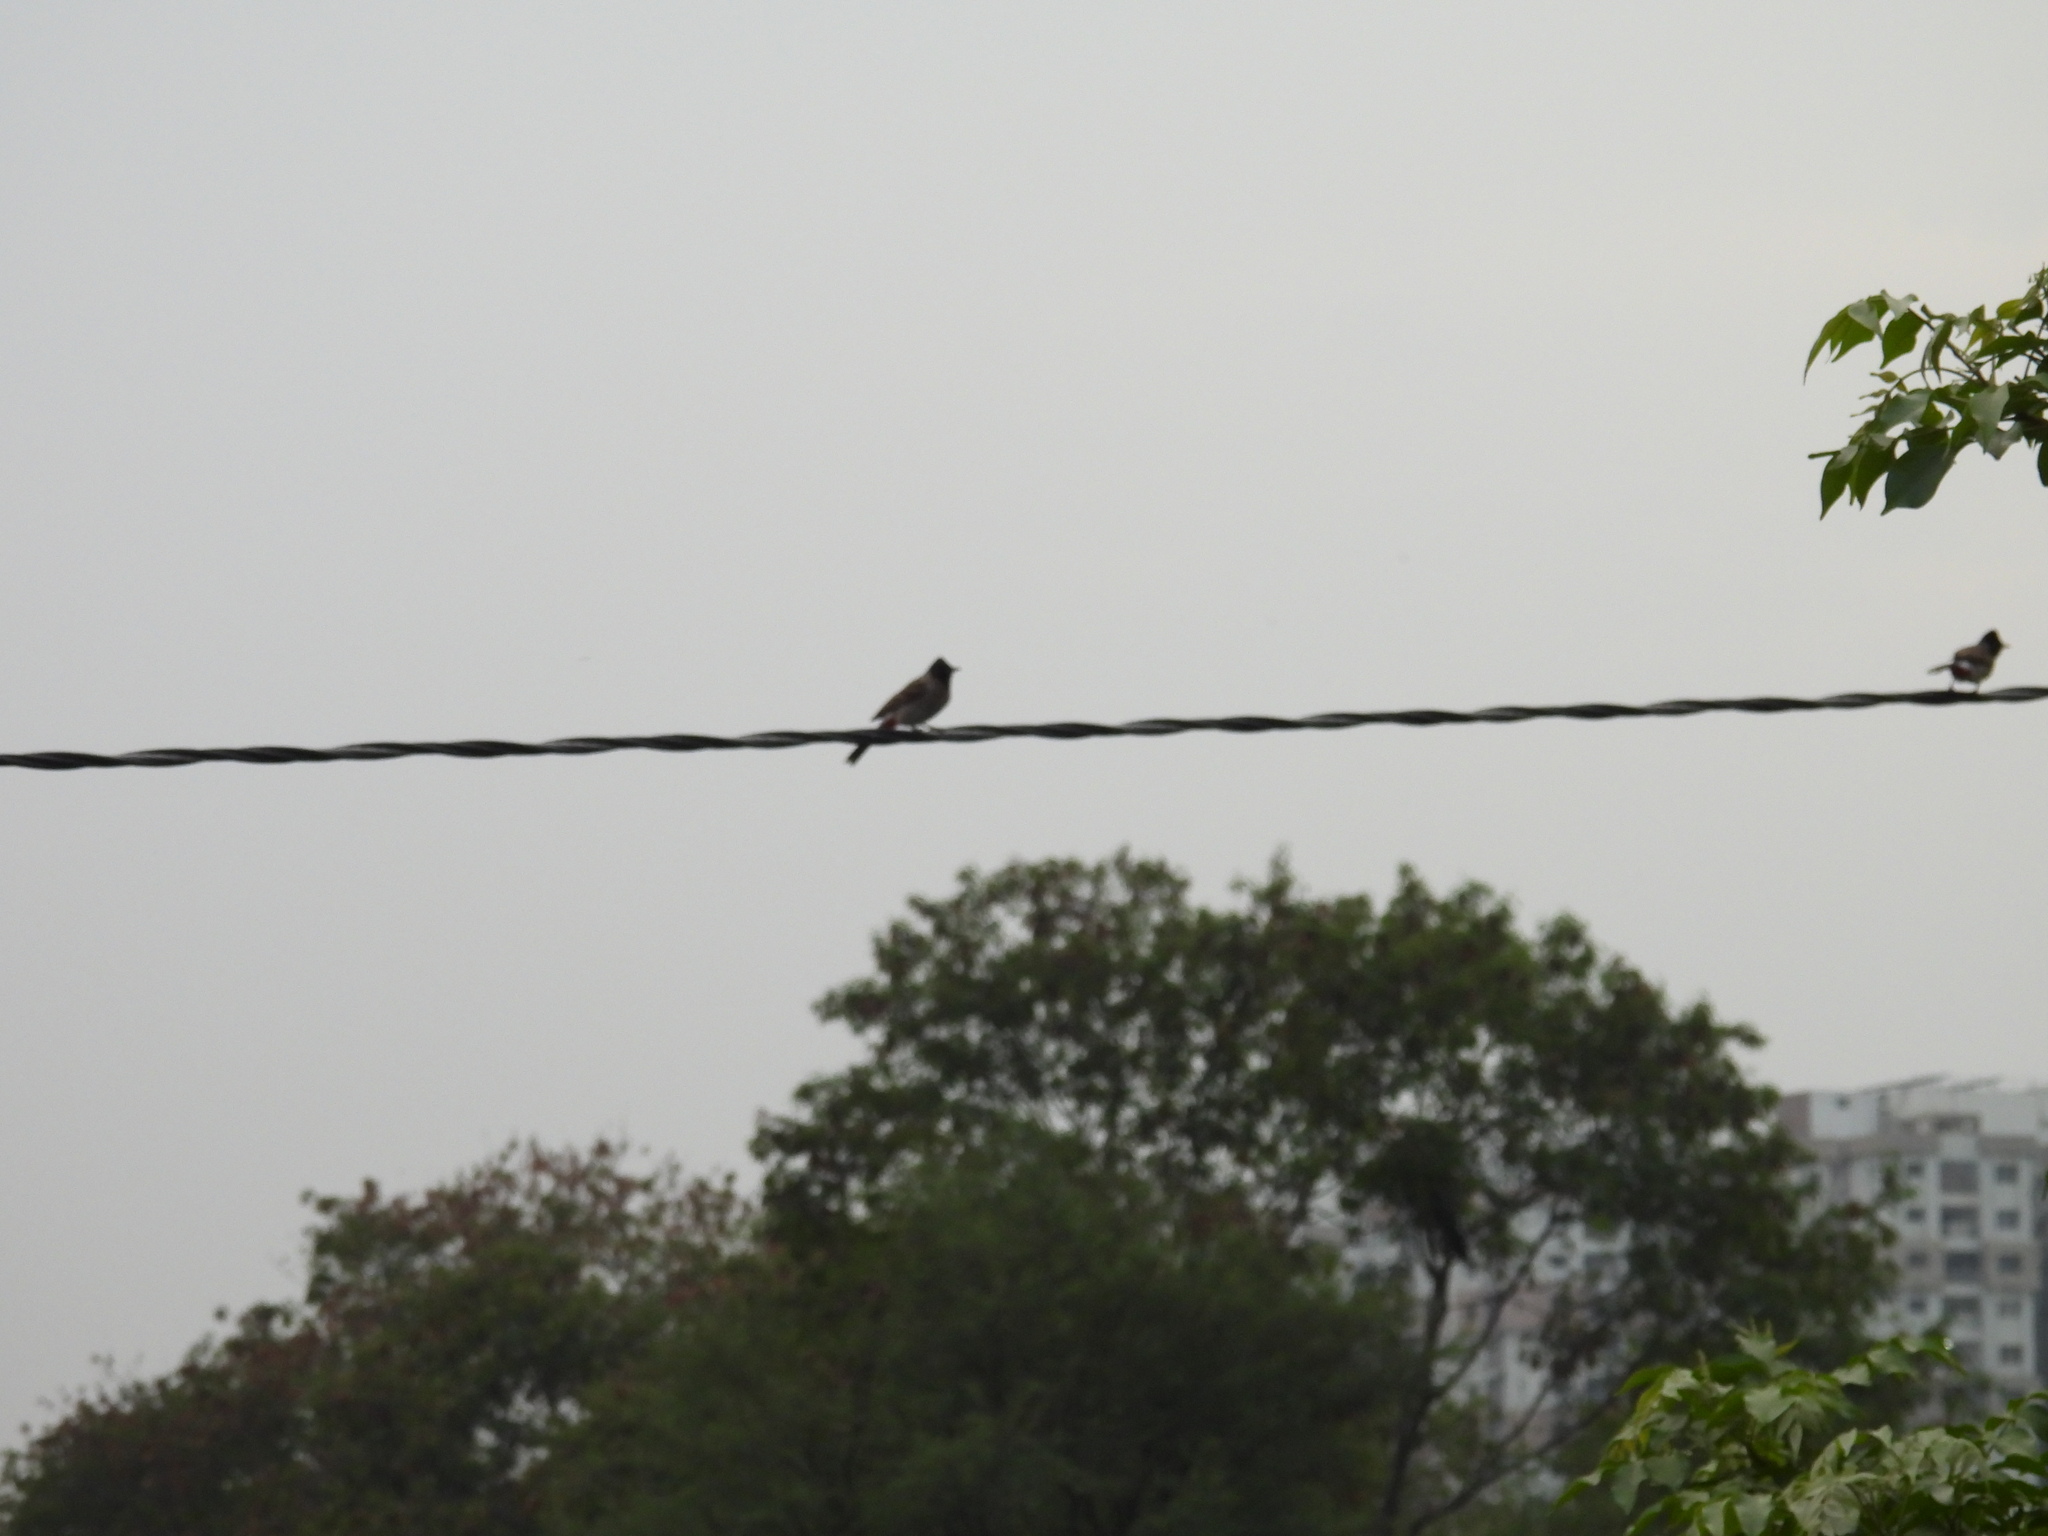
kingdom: Animalia
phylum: Chordata
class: Aves
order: Passeriformes
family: Pycnonotidae
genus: Pycnonotus
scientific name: Pycnonotus cafer
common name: Red-vented bulbul
